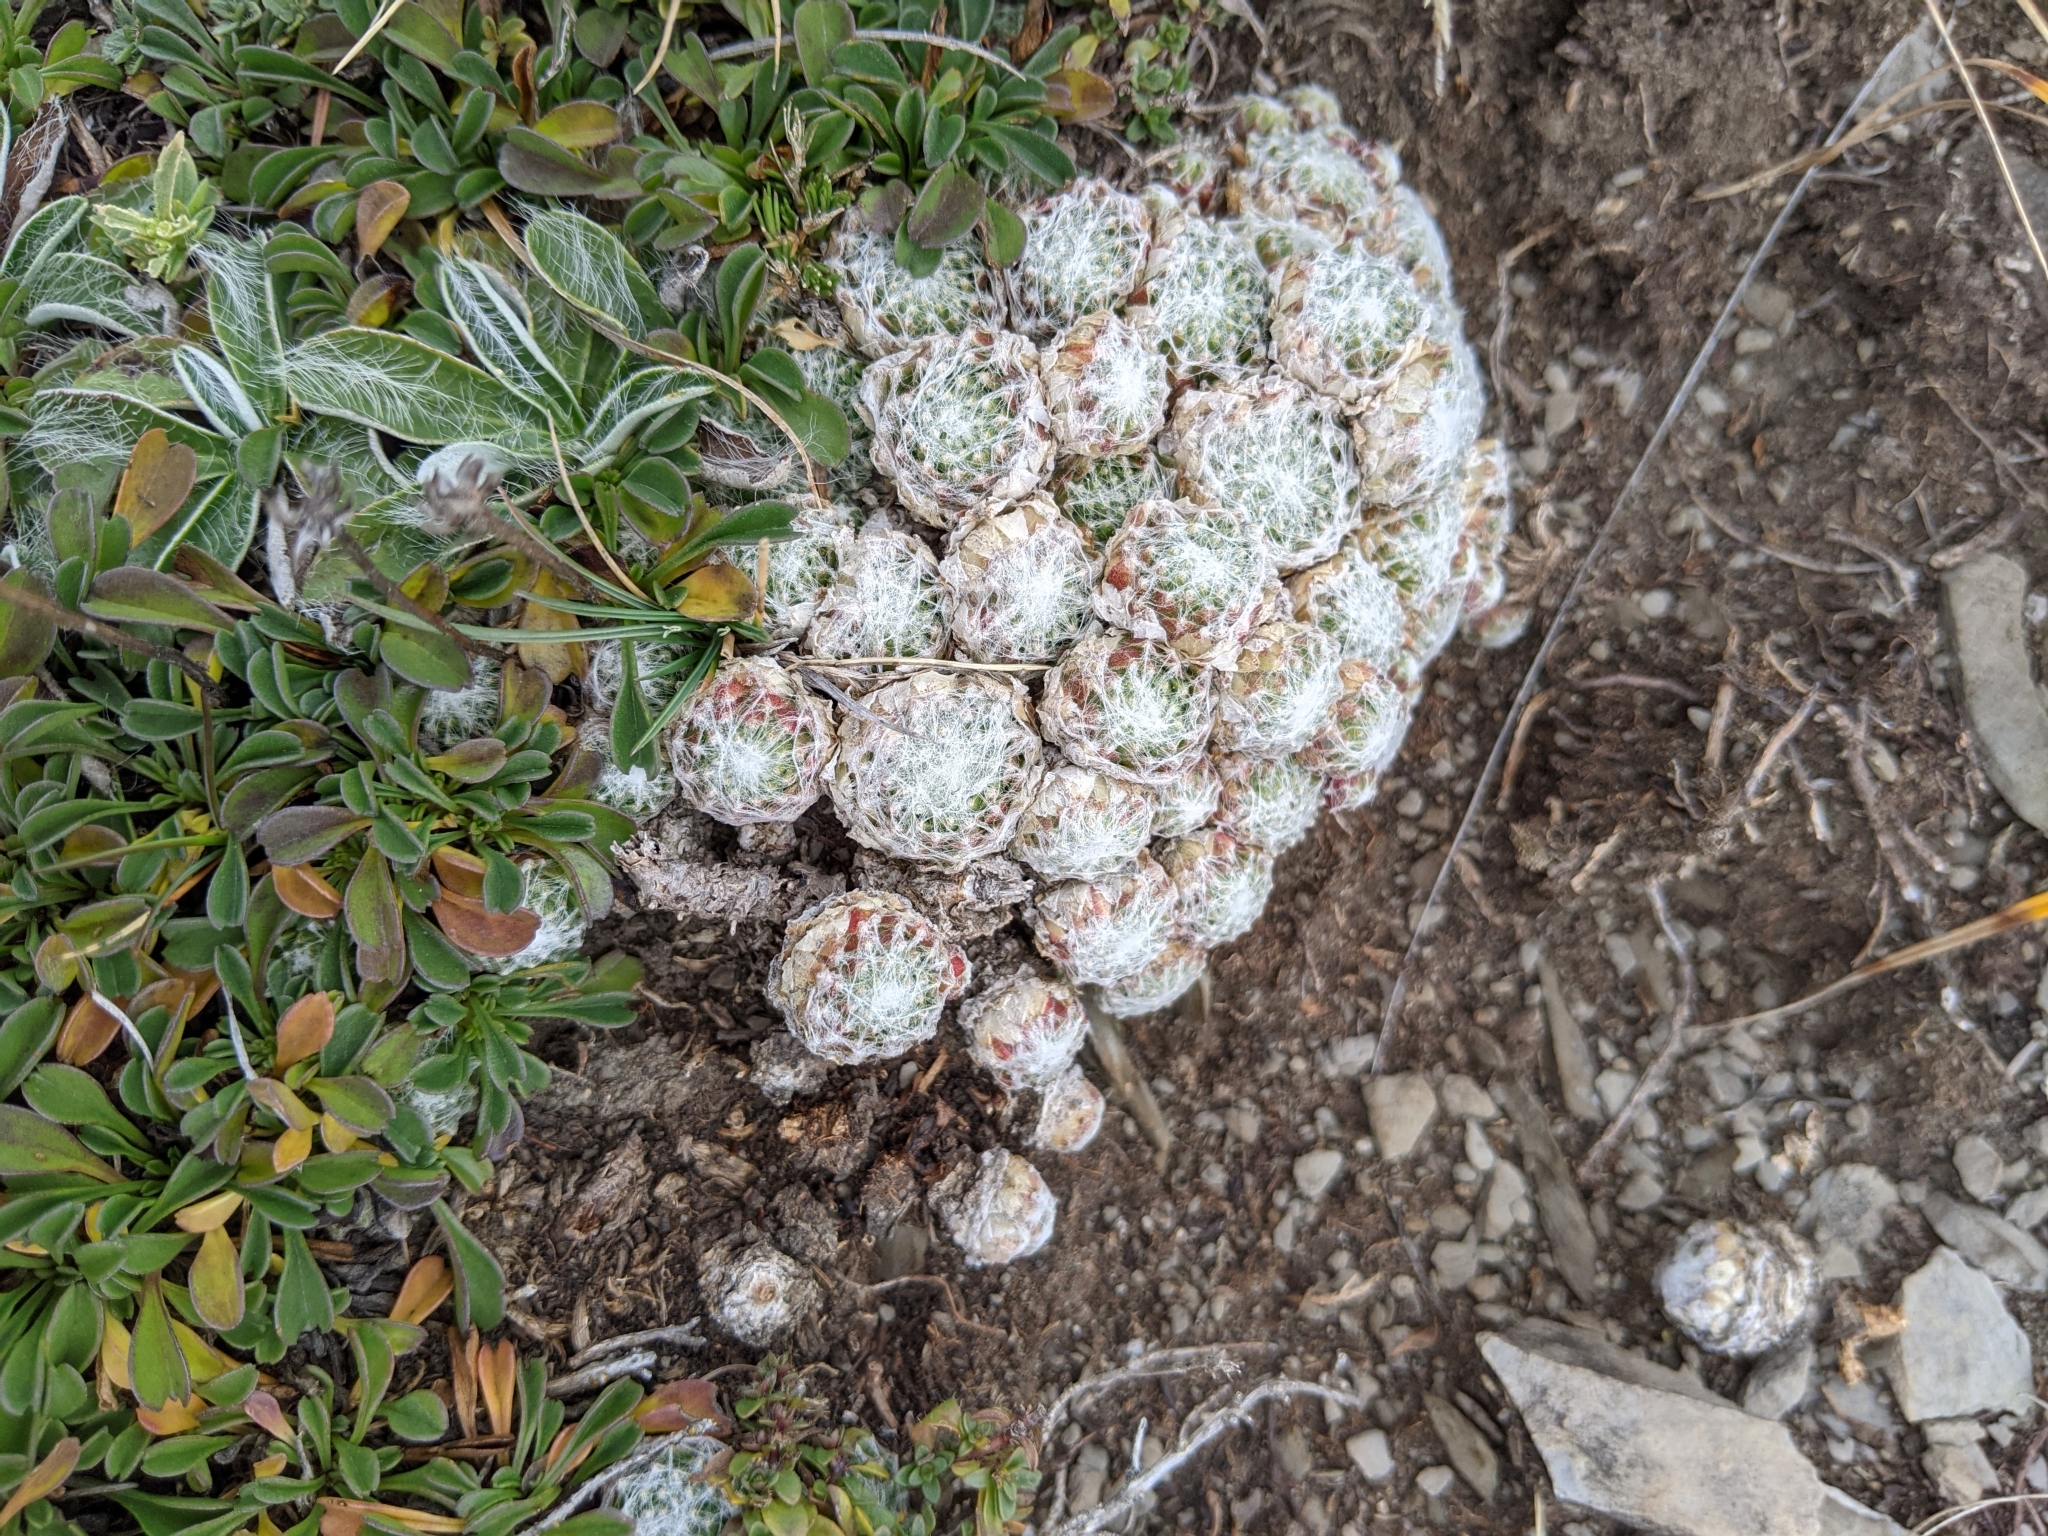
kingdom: Plantae
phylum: Tracheophyta
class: Magnoliopsida
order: Saxifragales
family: Crassulaceae
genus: Sempervivum
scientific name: Sempervivum arachnoideum
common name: Cobweb house-leek
